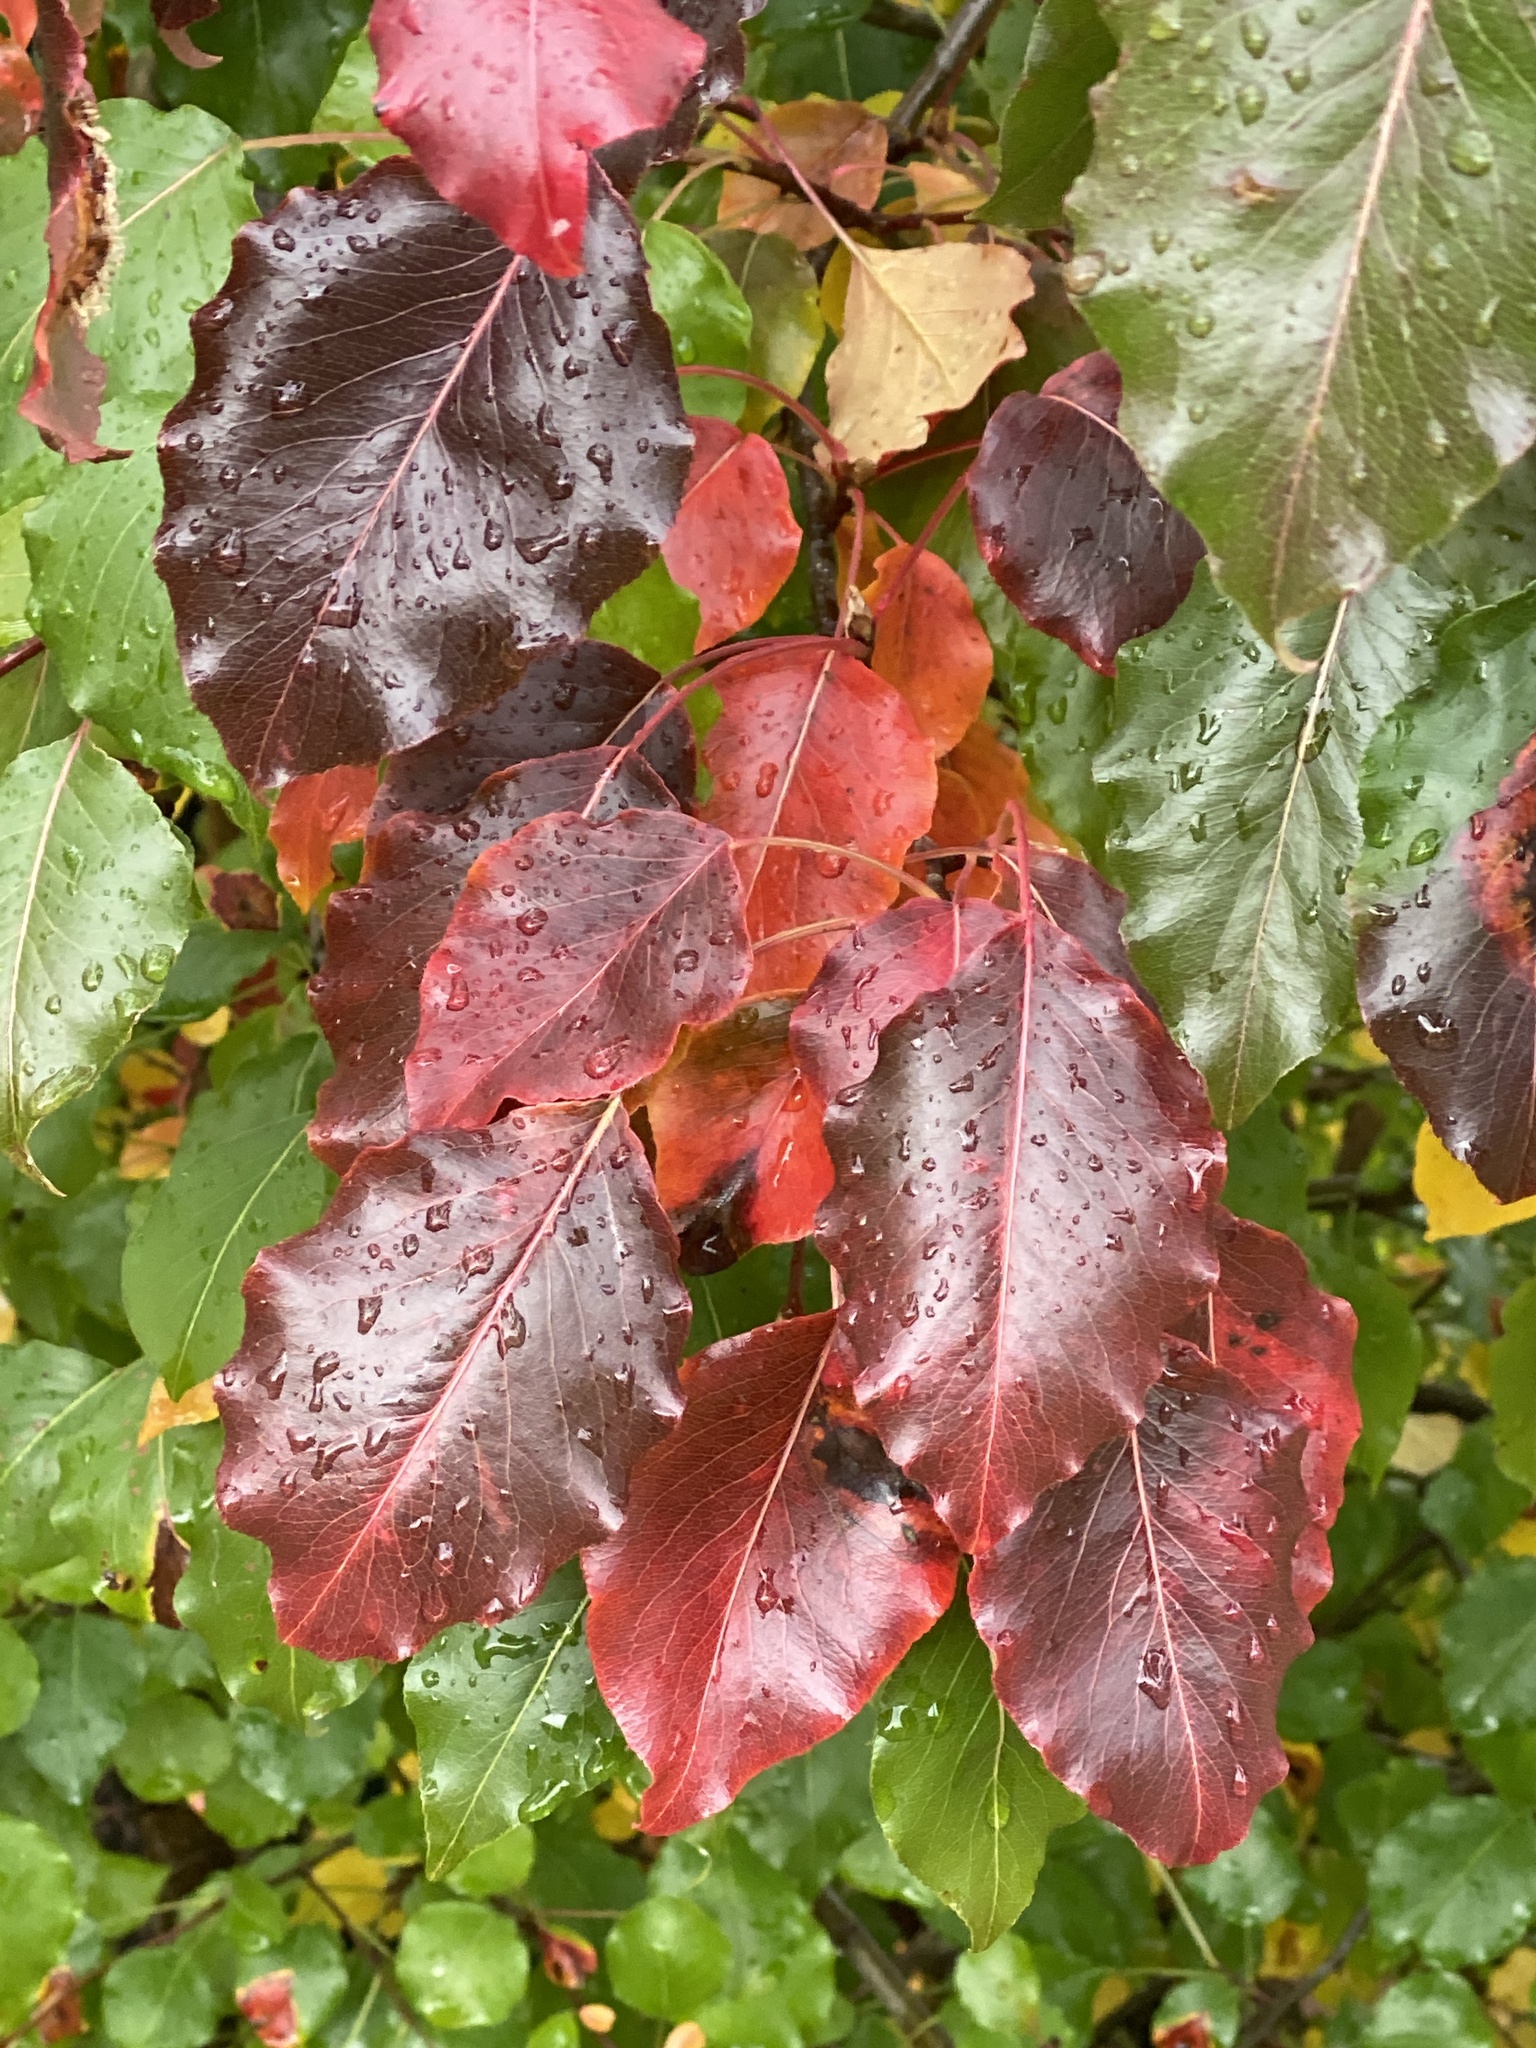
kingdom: Plantae
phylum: Tracheophyta
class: Magnoliopsida
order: Rosales
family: Rosaceae
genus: Pyrus
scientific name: Pyrus calleryana
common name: Callery pear
